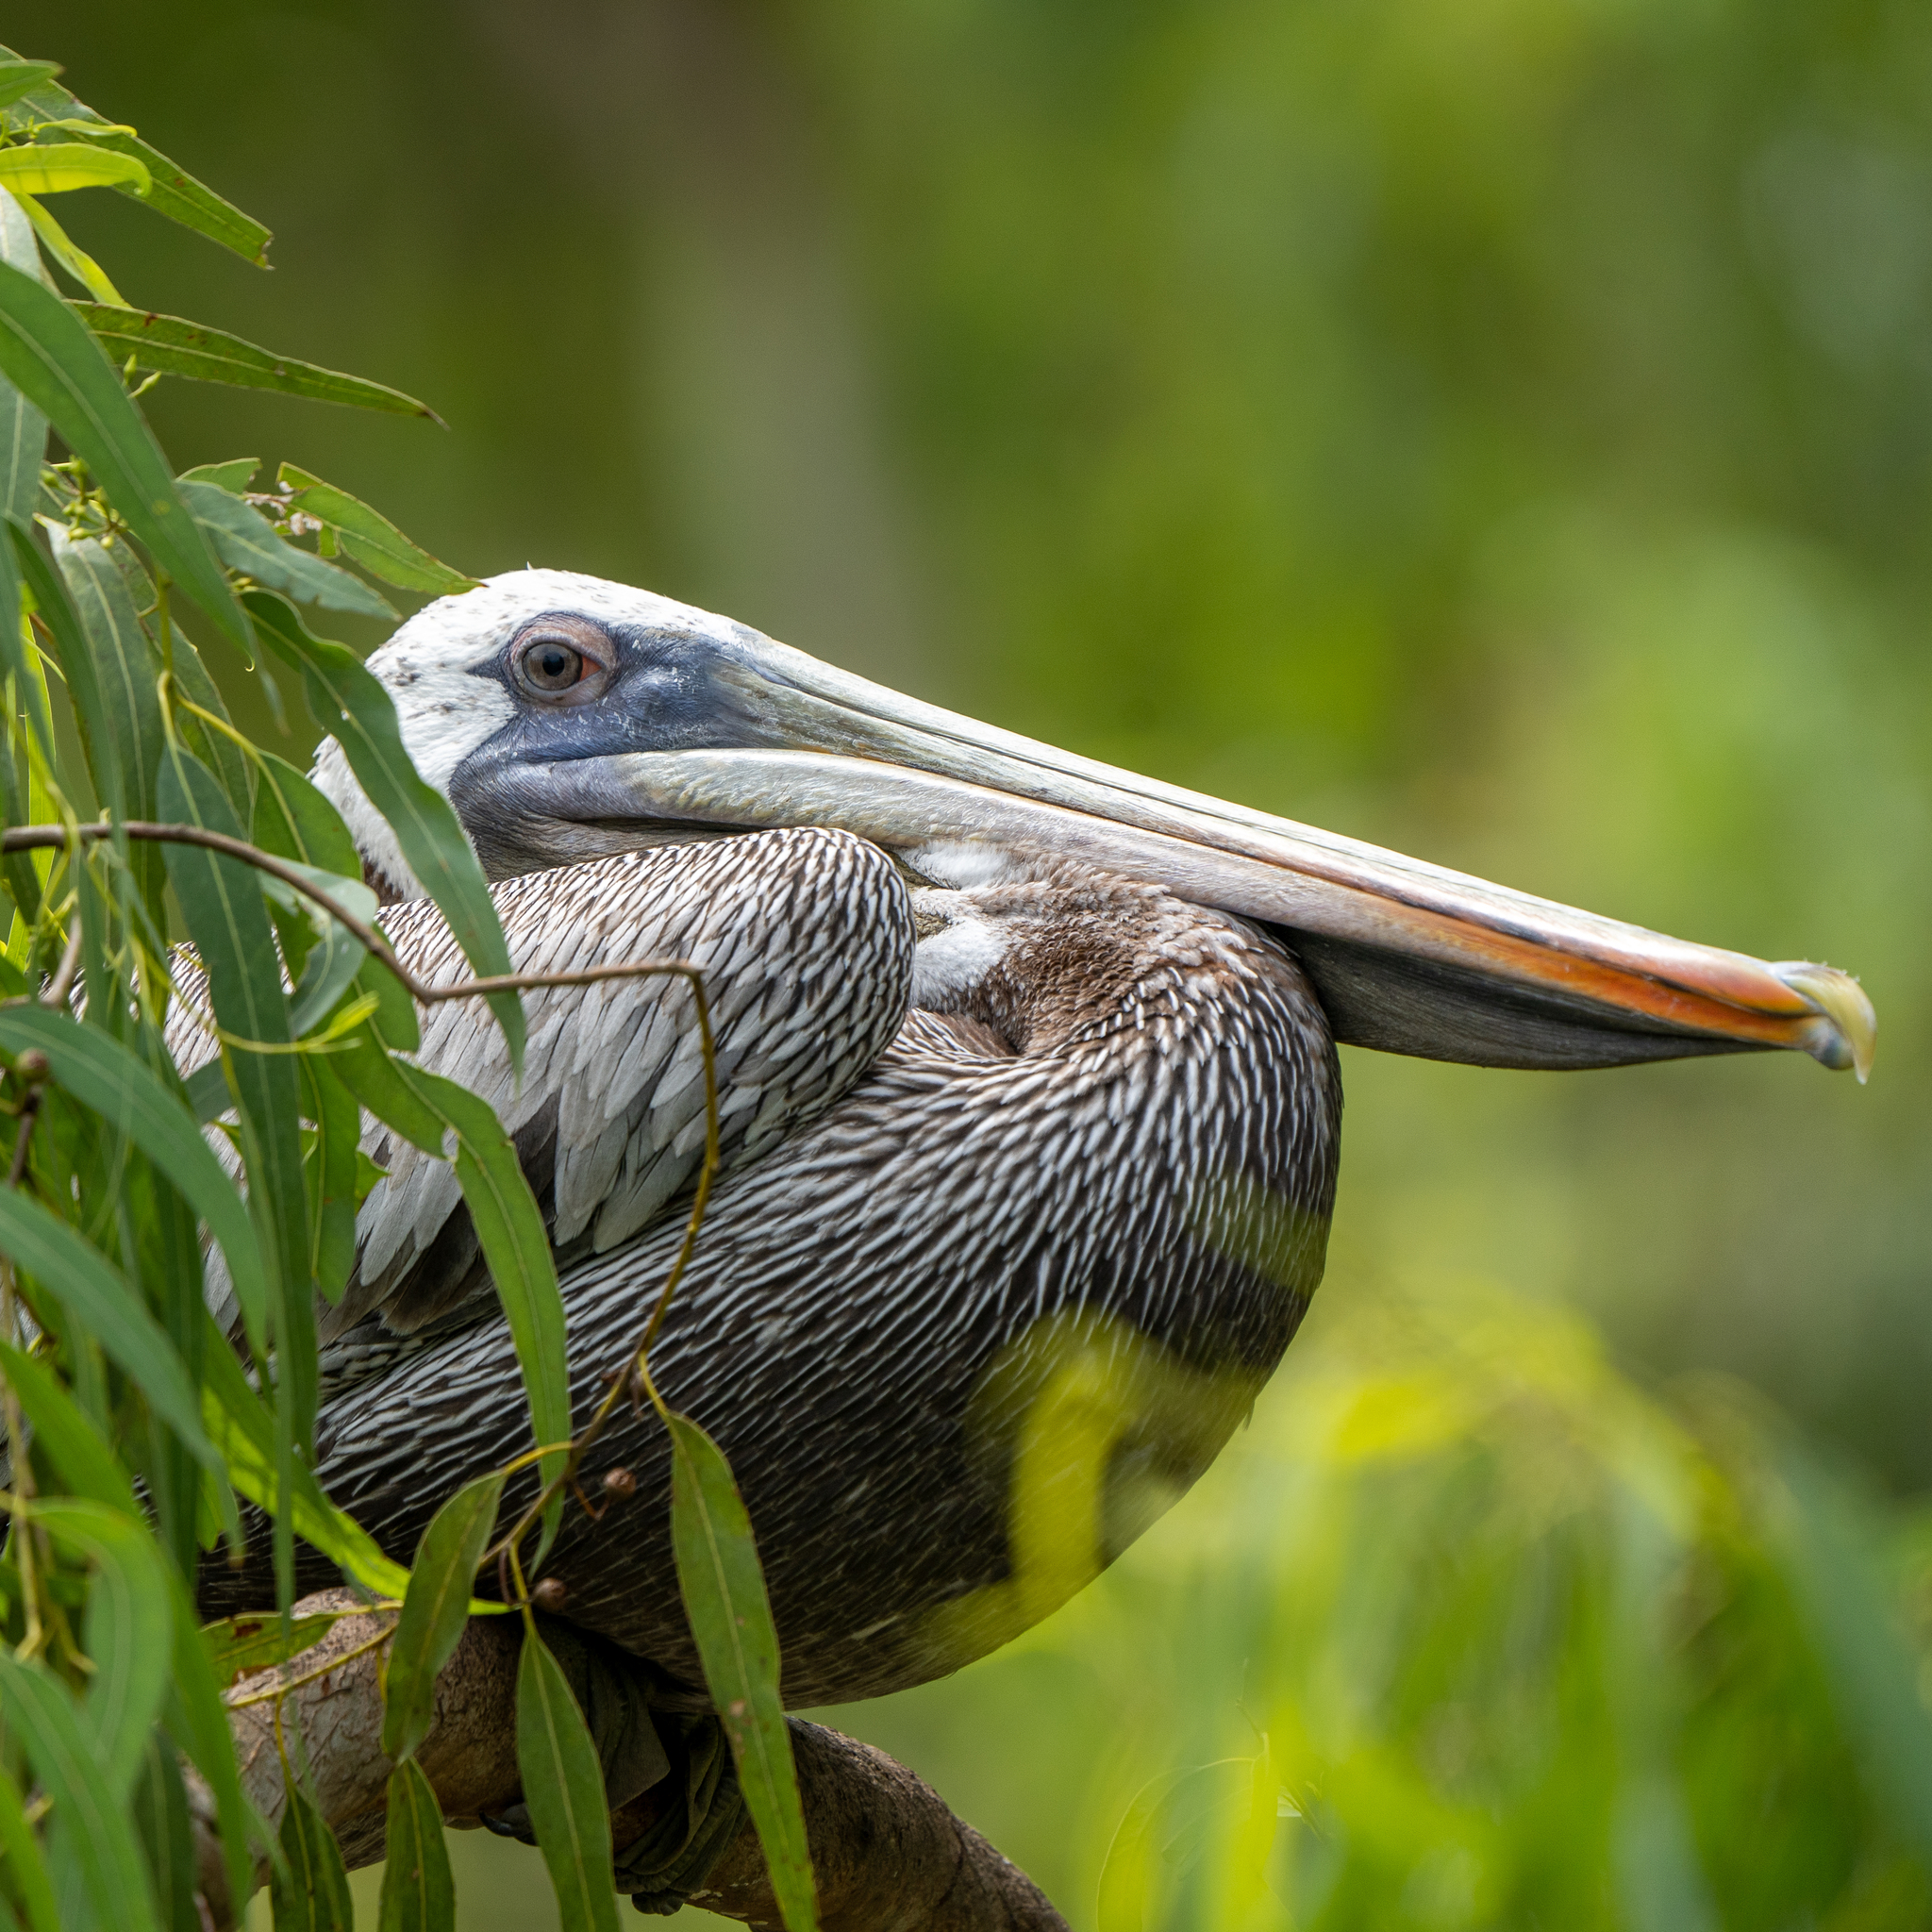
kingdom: Animalia
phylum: Chordata
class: Aves
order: Pelecaniformes
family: Pelecanidae
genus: Pelecanus
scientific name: Pelecanus occidentalis
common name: Brown pelican
